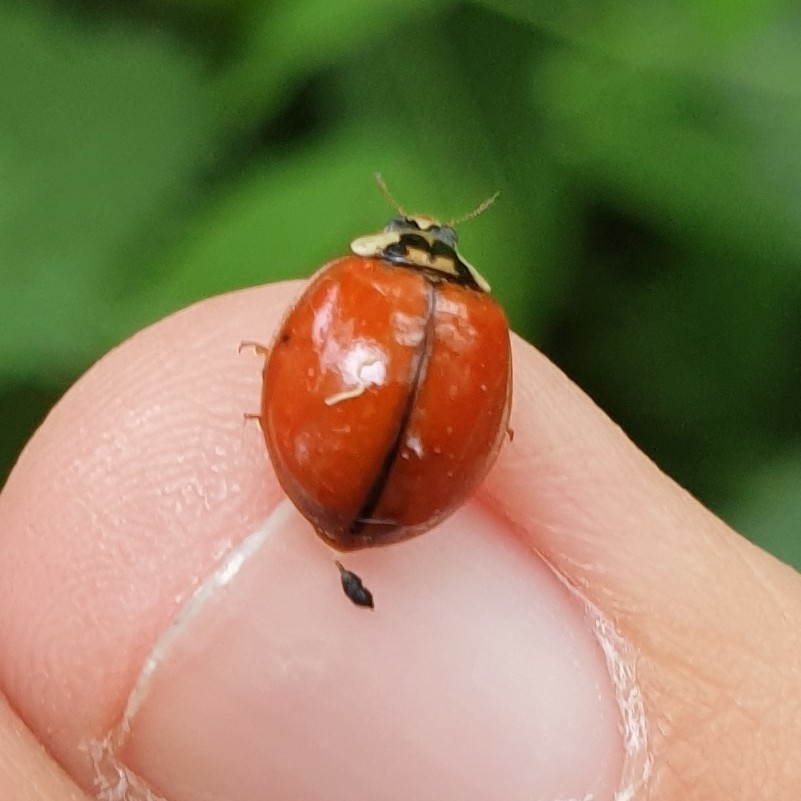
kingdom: Animalia
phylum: Arthropoda
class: Insecta
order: Coleoptera
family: Coccinellidae
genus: Harmonia
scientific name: Harmonia axyridis
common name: Harlequin ladybird
